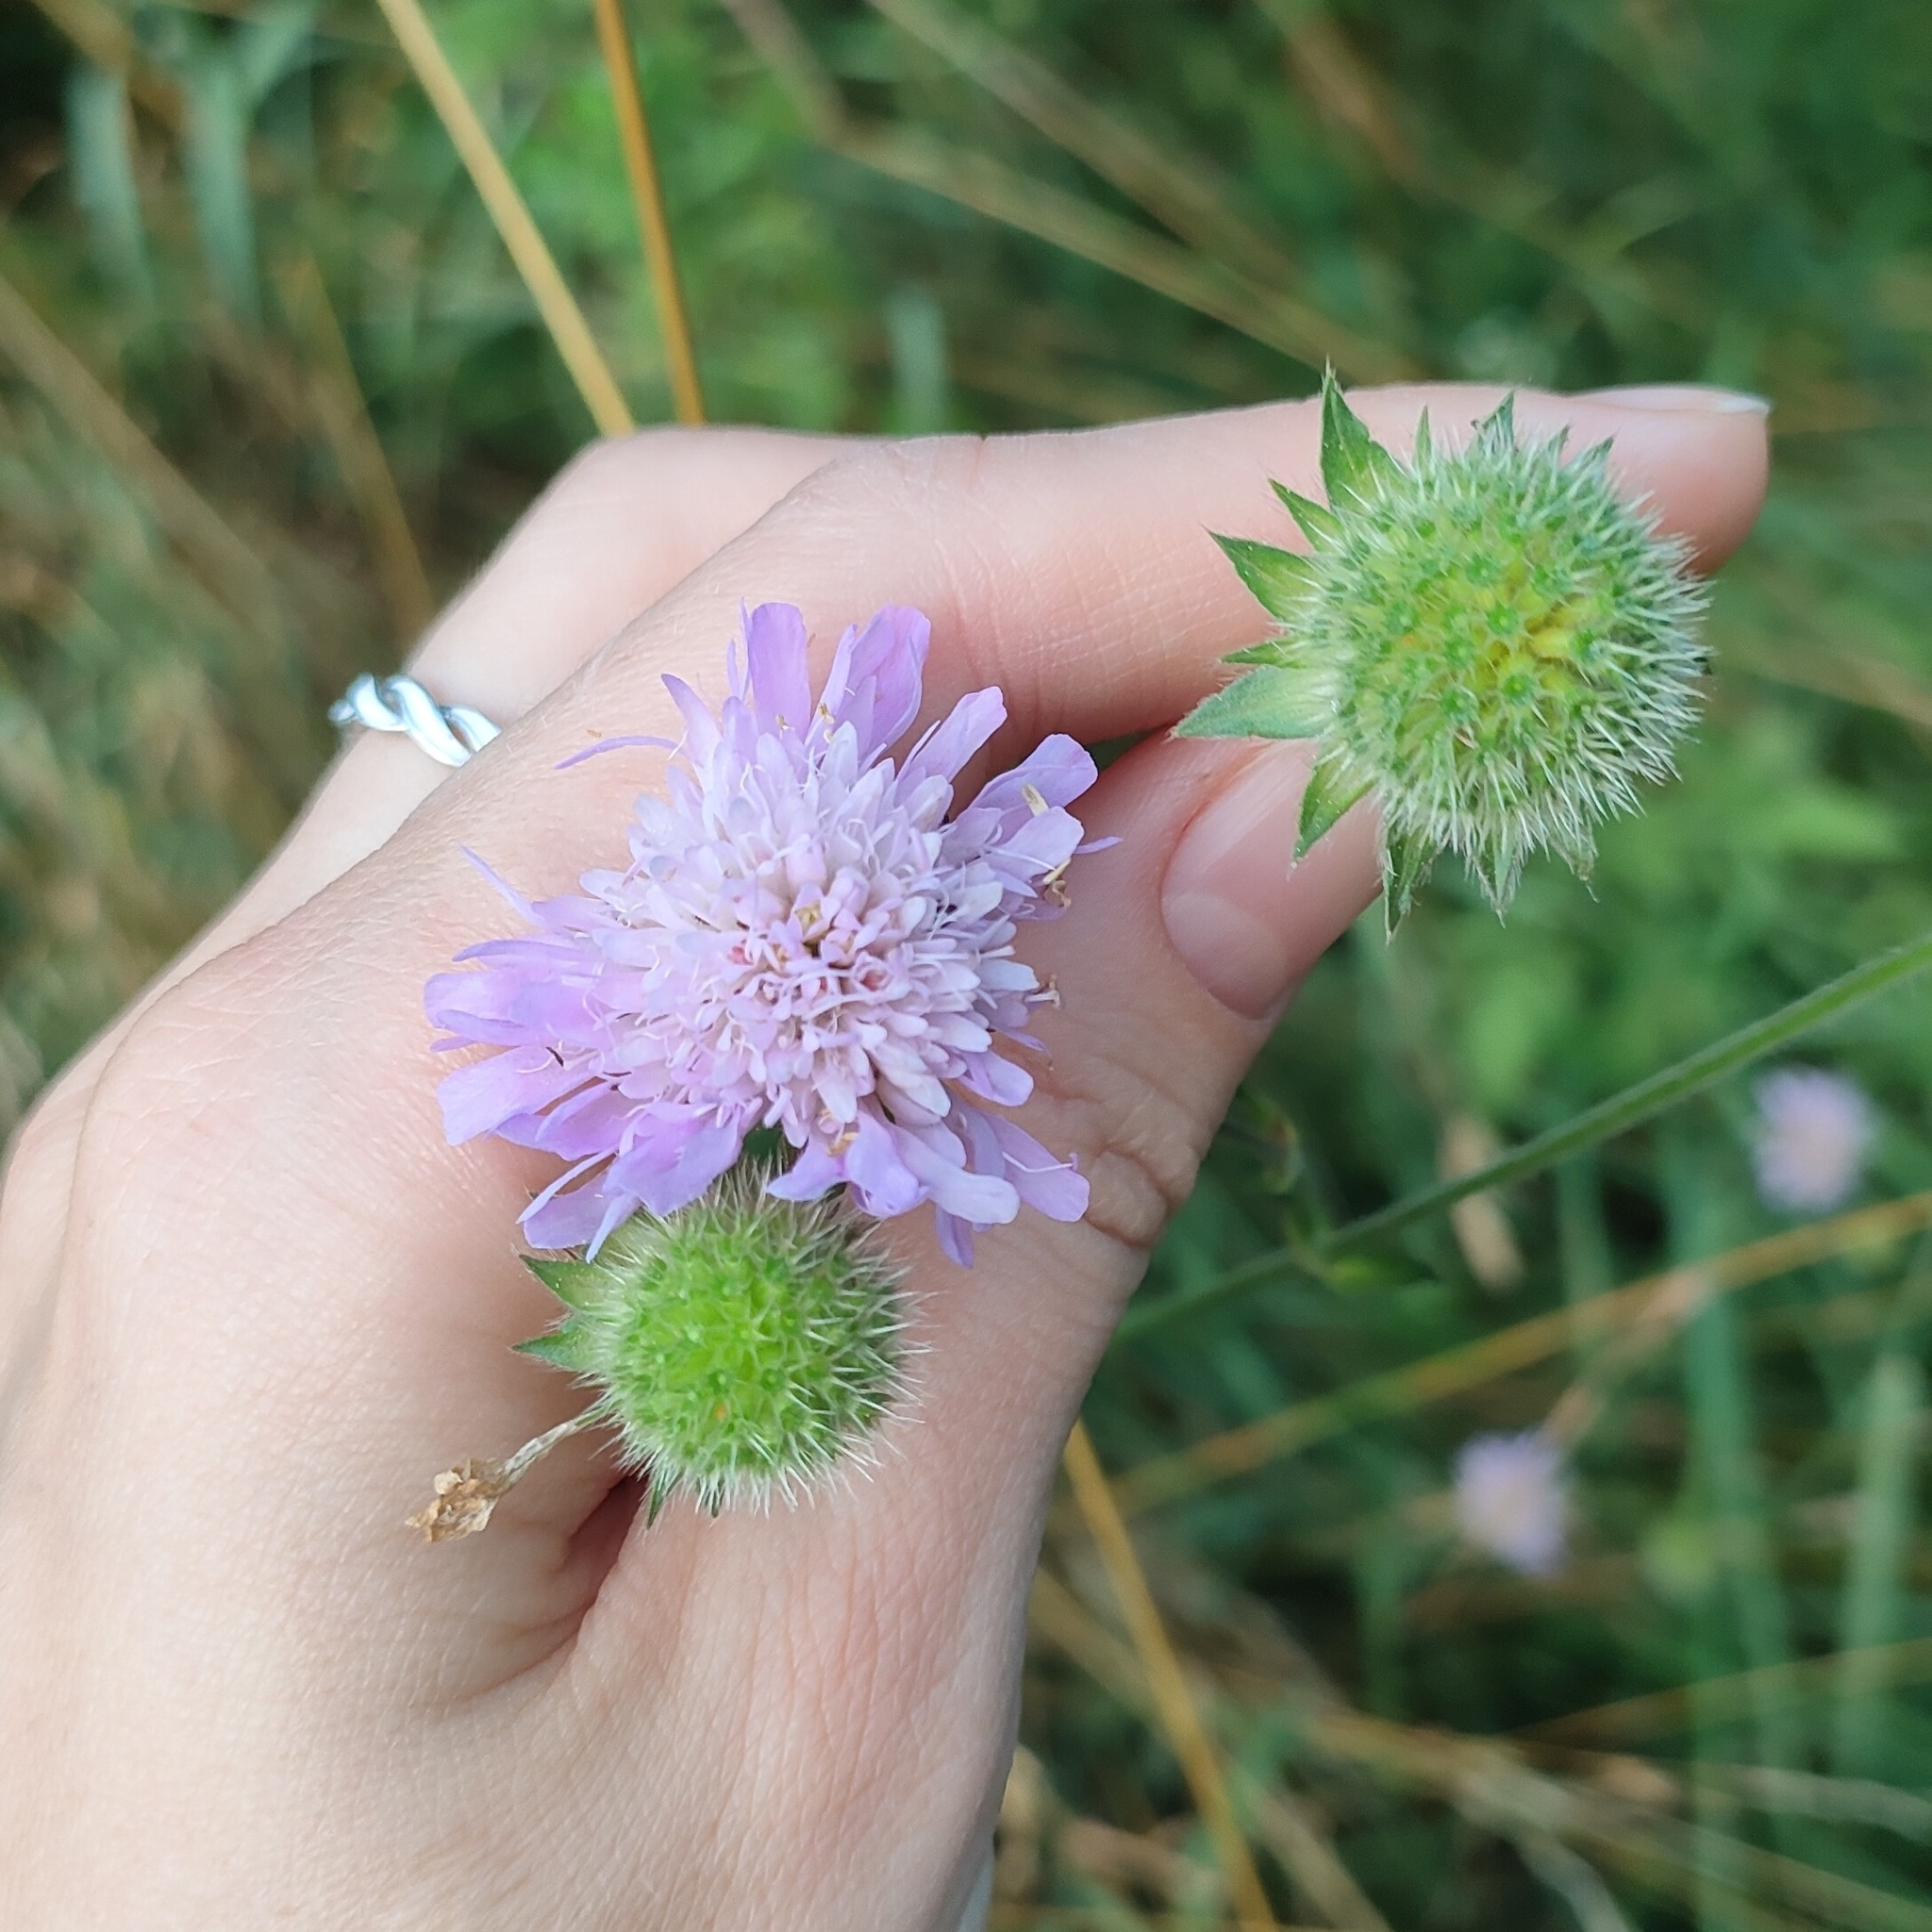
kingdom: Plantae
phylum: Tracheophyta
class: Magnoliopsida
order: Dipsacales
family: Caprifoliaceae
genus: Knautia
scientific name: Knautia arvensis
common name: Field scabiosa
